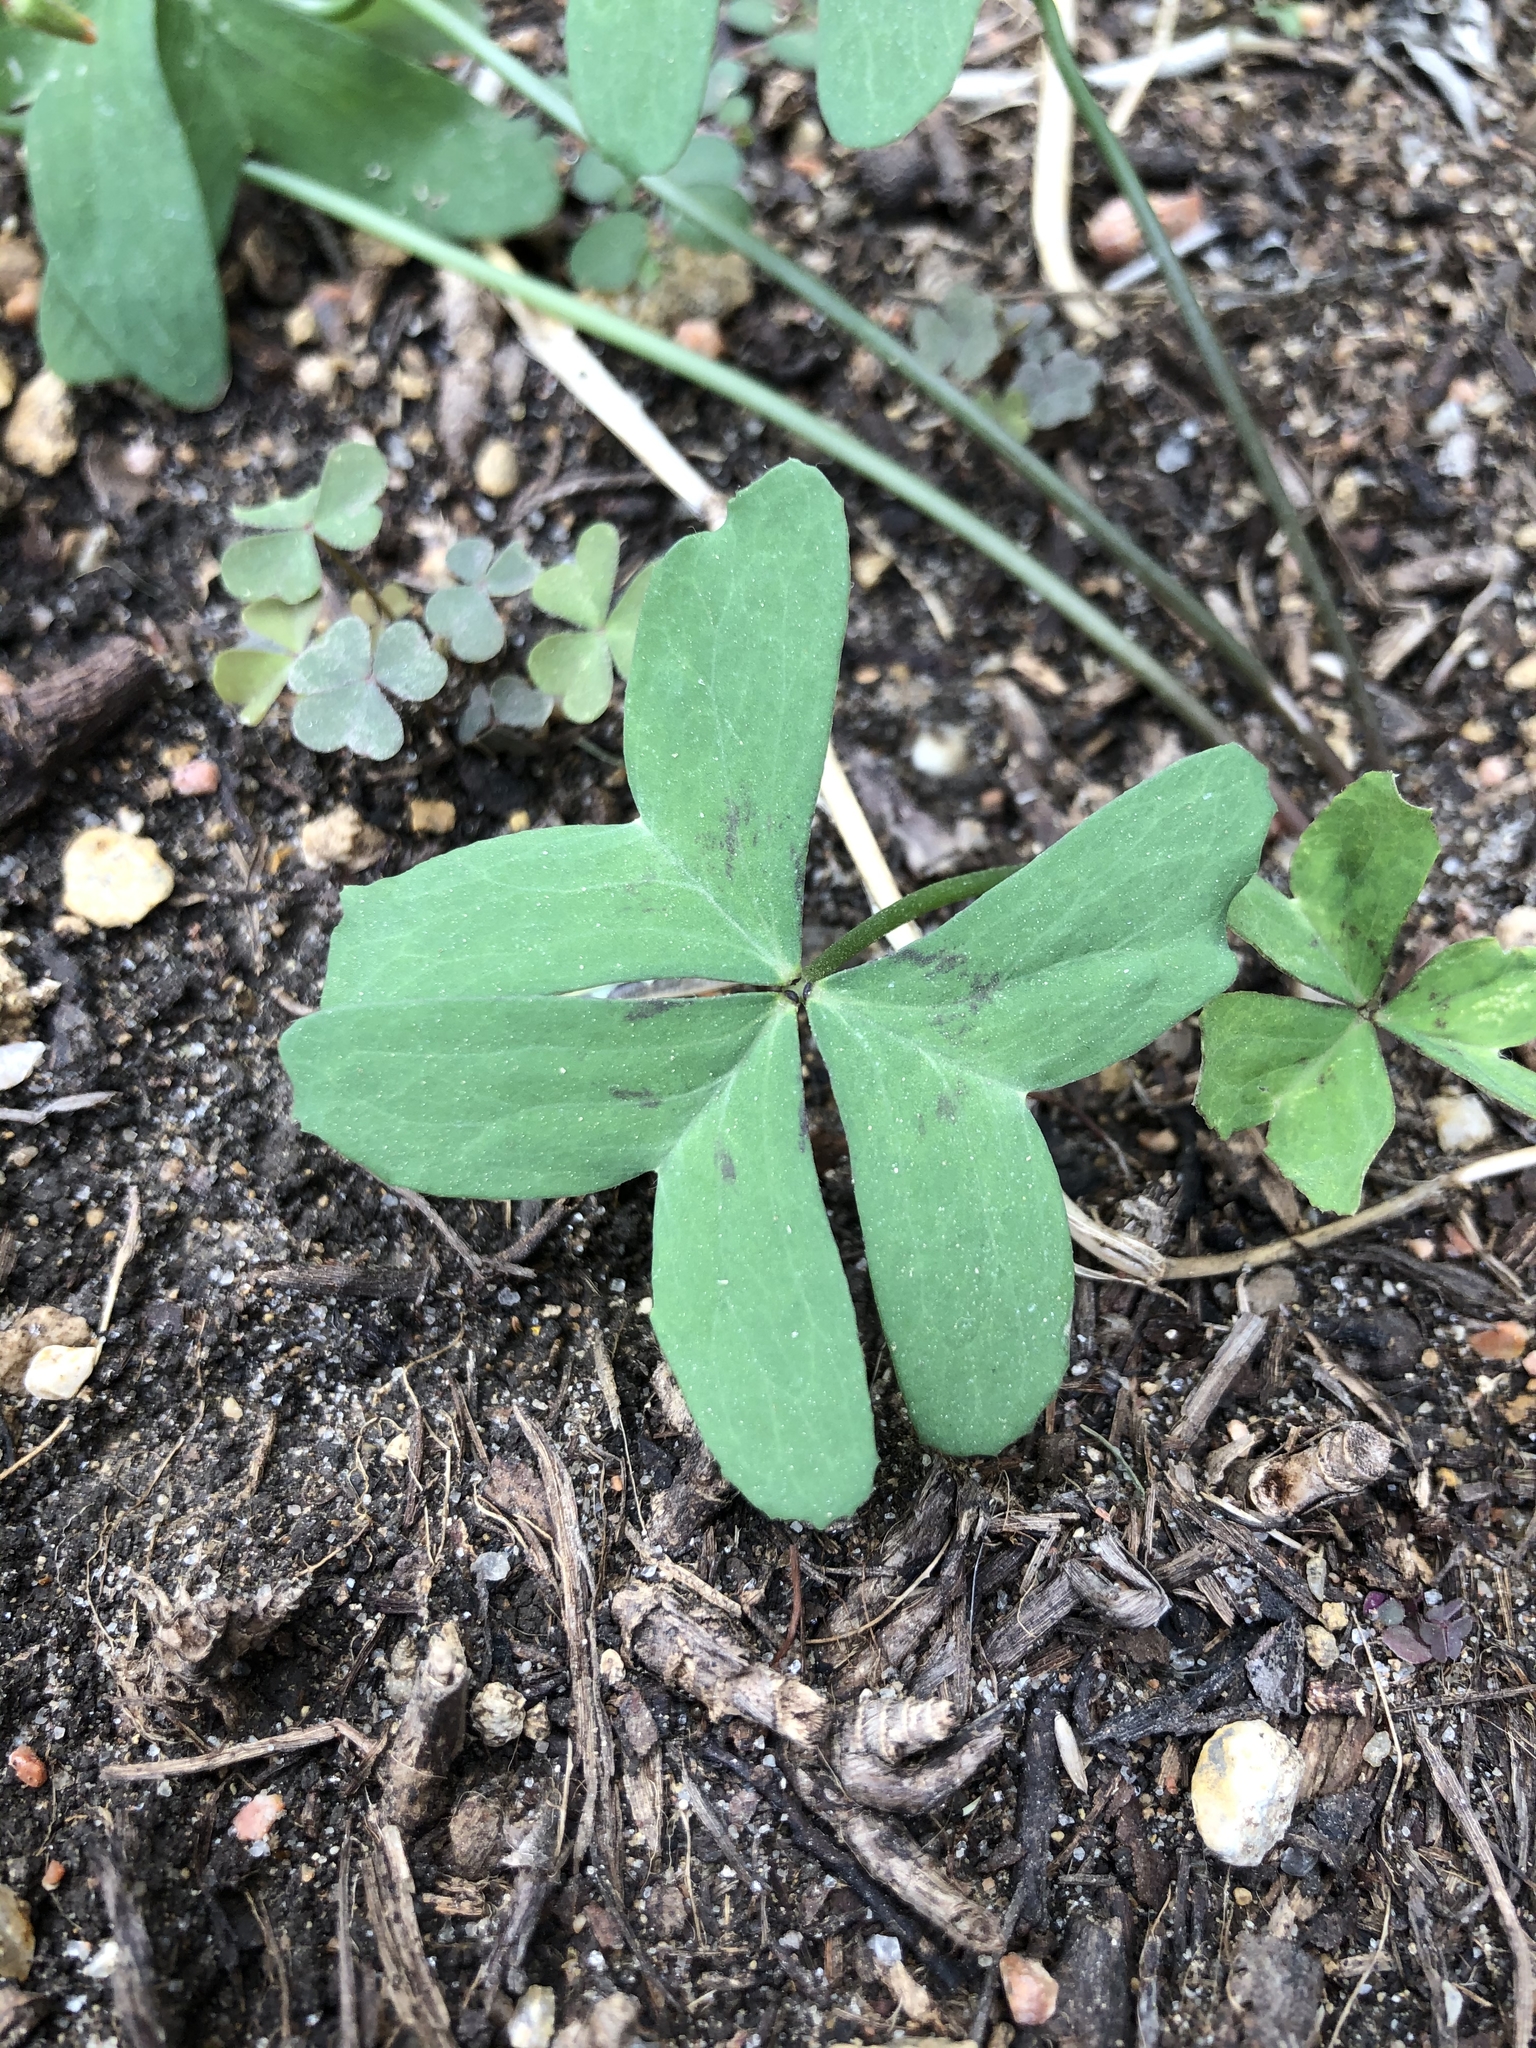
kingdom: Plantae
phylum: Tracheophyta
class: Magnoliopsida
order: Oxalidales
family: Oxalidaceae
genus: Oxalis
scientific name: Oxalis drummondii
